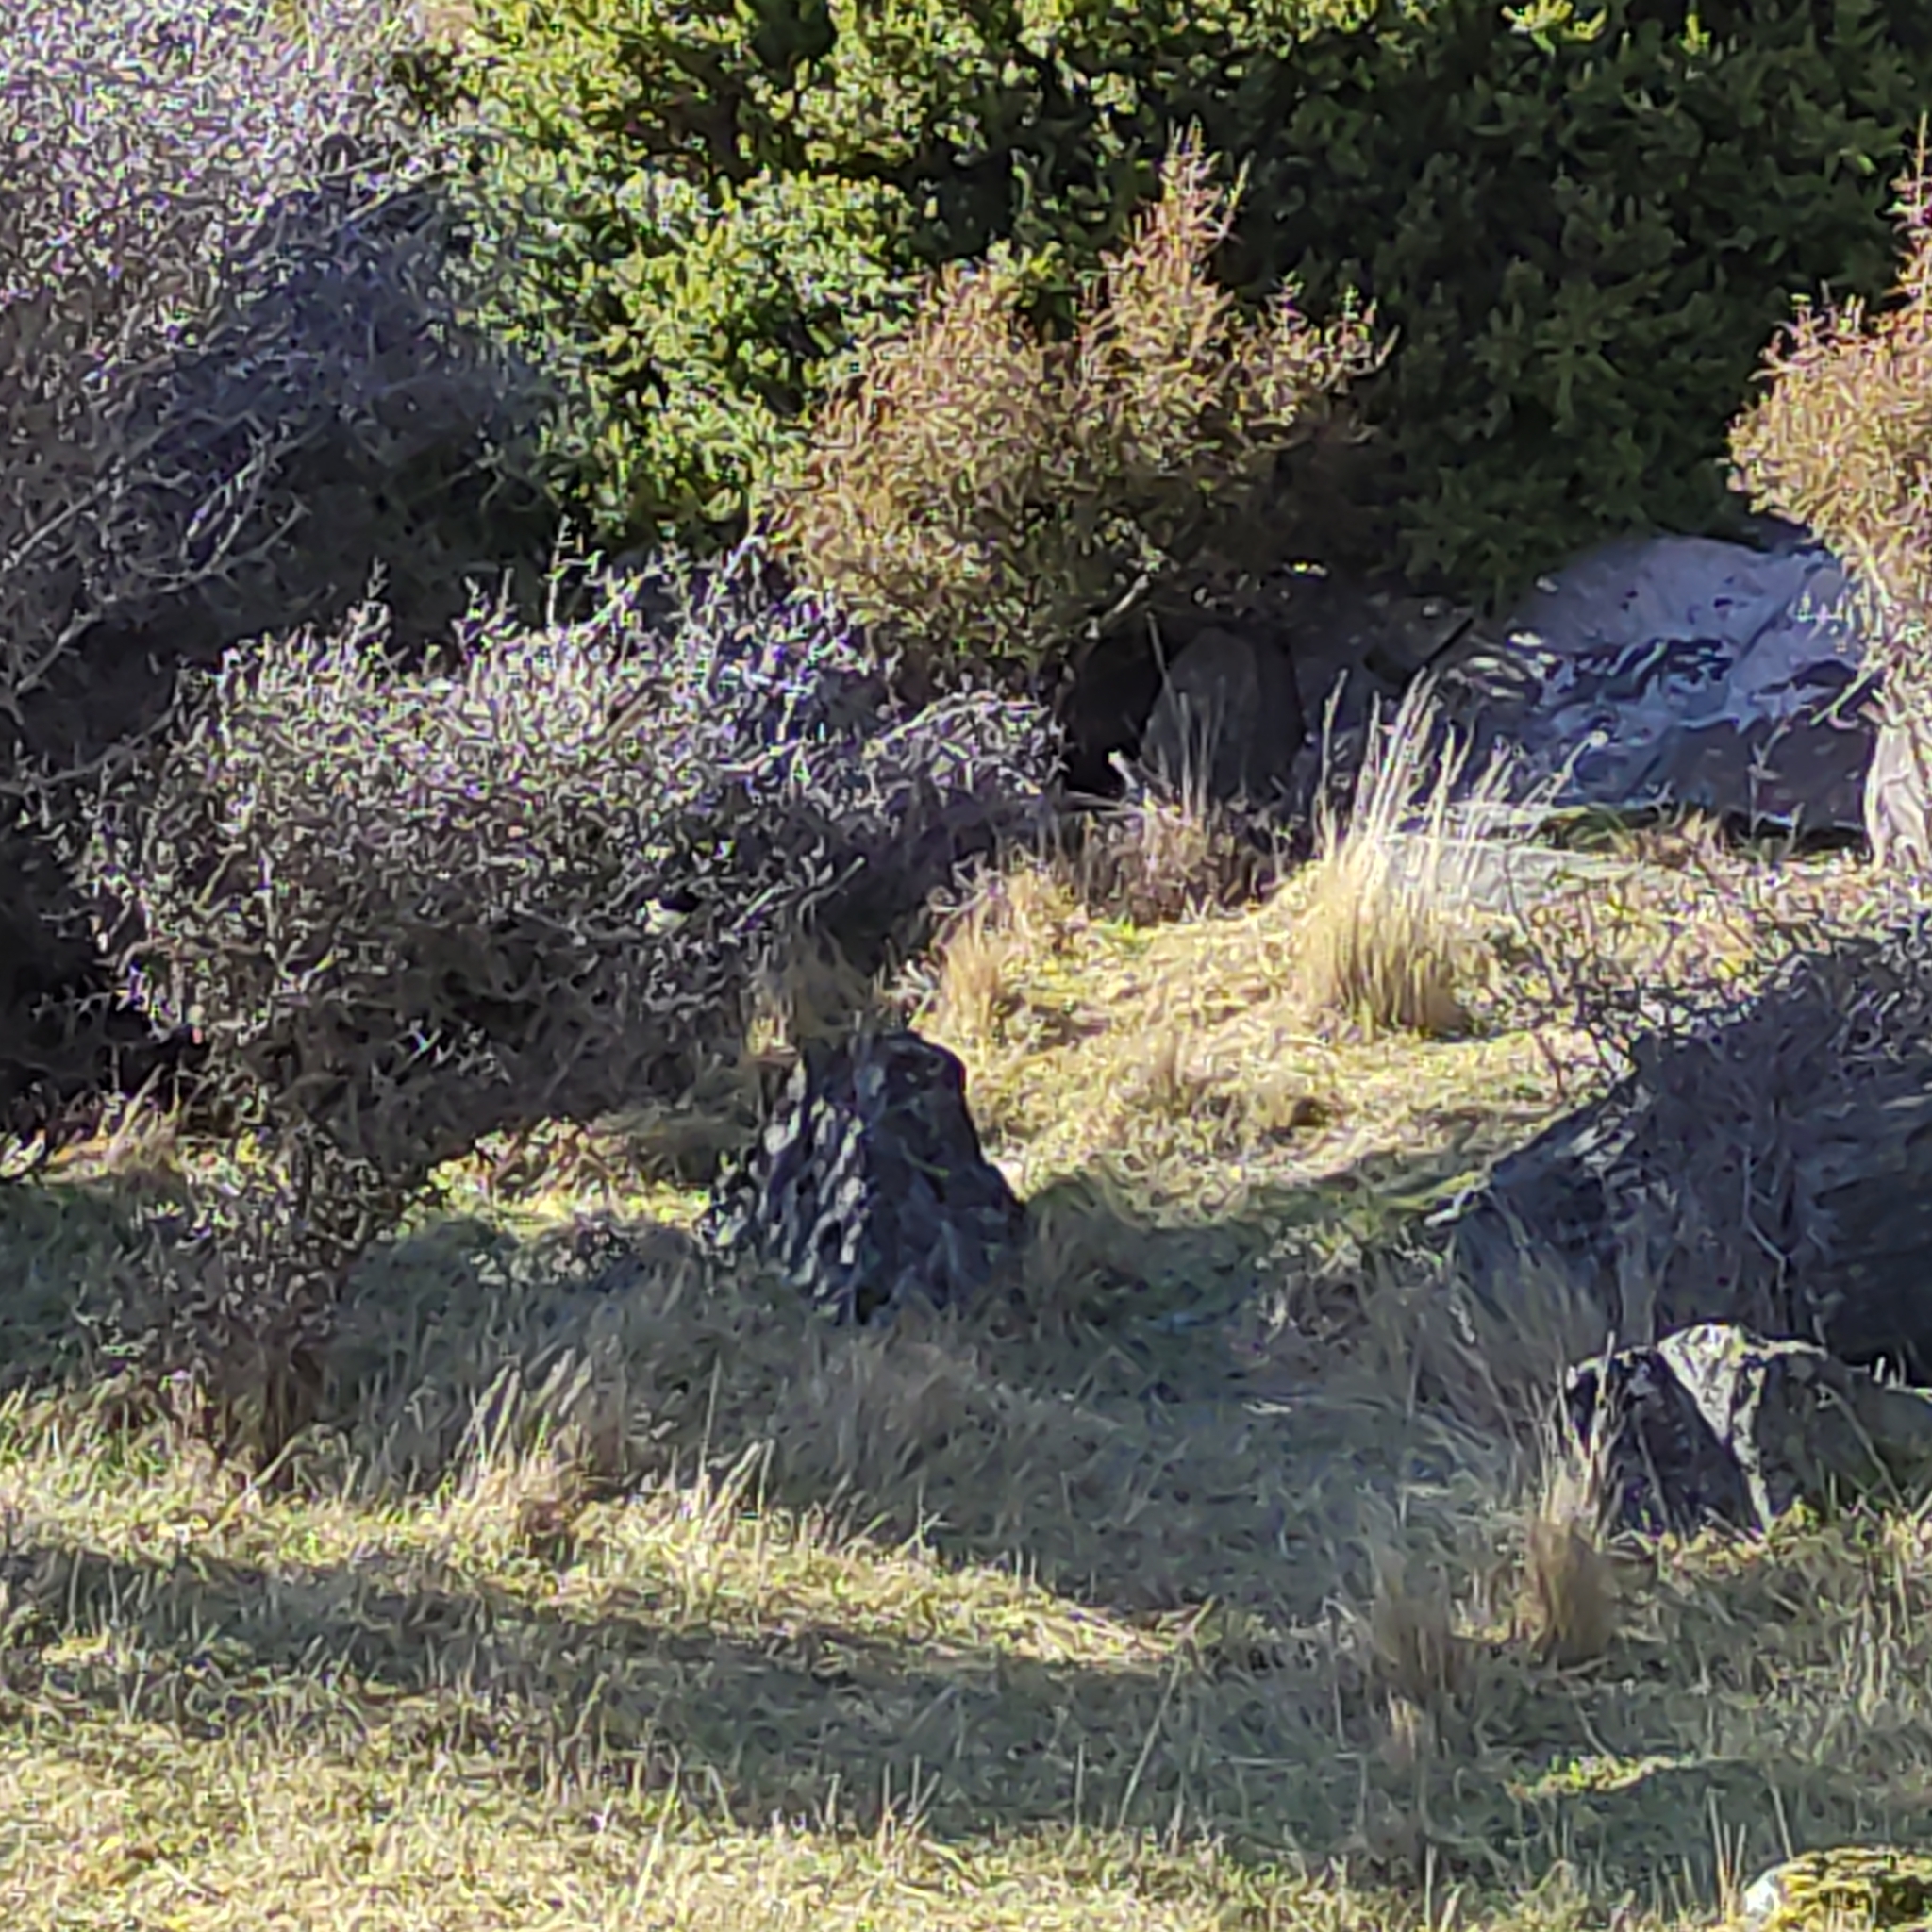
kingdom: Animalia
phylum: Chordata
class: Aves
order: Passeriformes
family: Petroicidae
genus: Petroica
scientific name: Petroica macrocephala
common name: Tomtit
